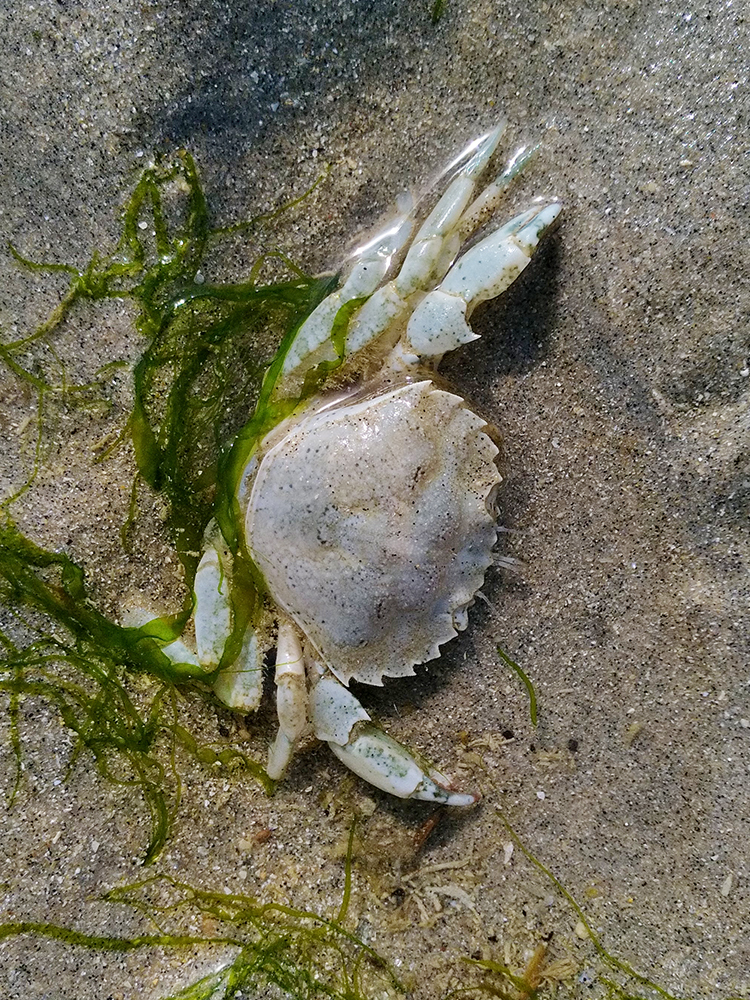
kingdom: Animalia
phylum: Arthropoda
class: Malacostraca
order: Decapoda
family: Carcinidae
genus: Carcinus
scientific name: Carcinus maenas
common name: European green crab
